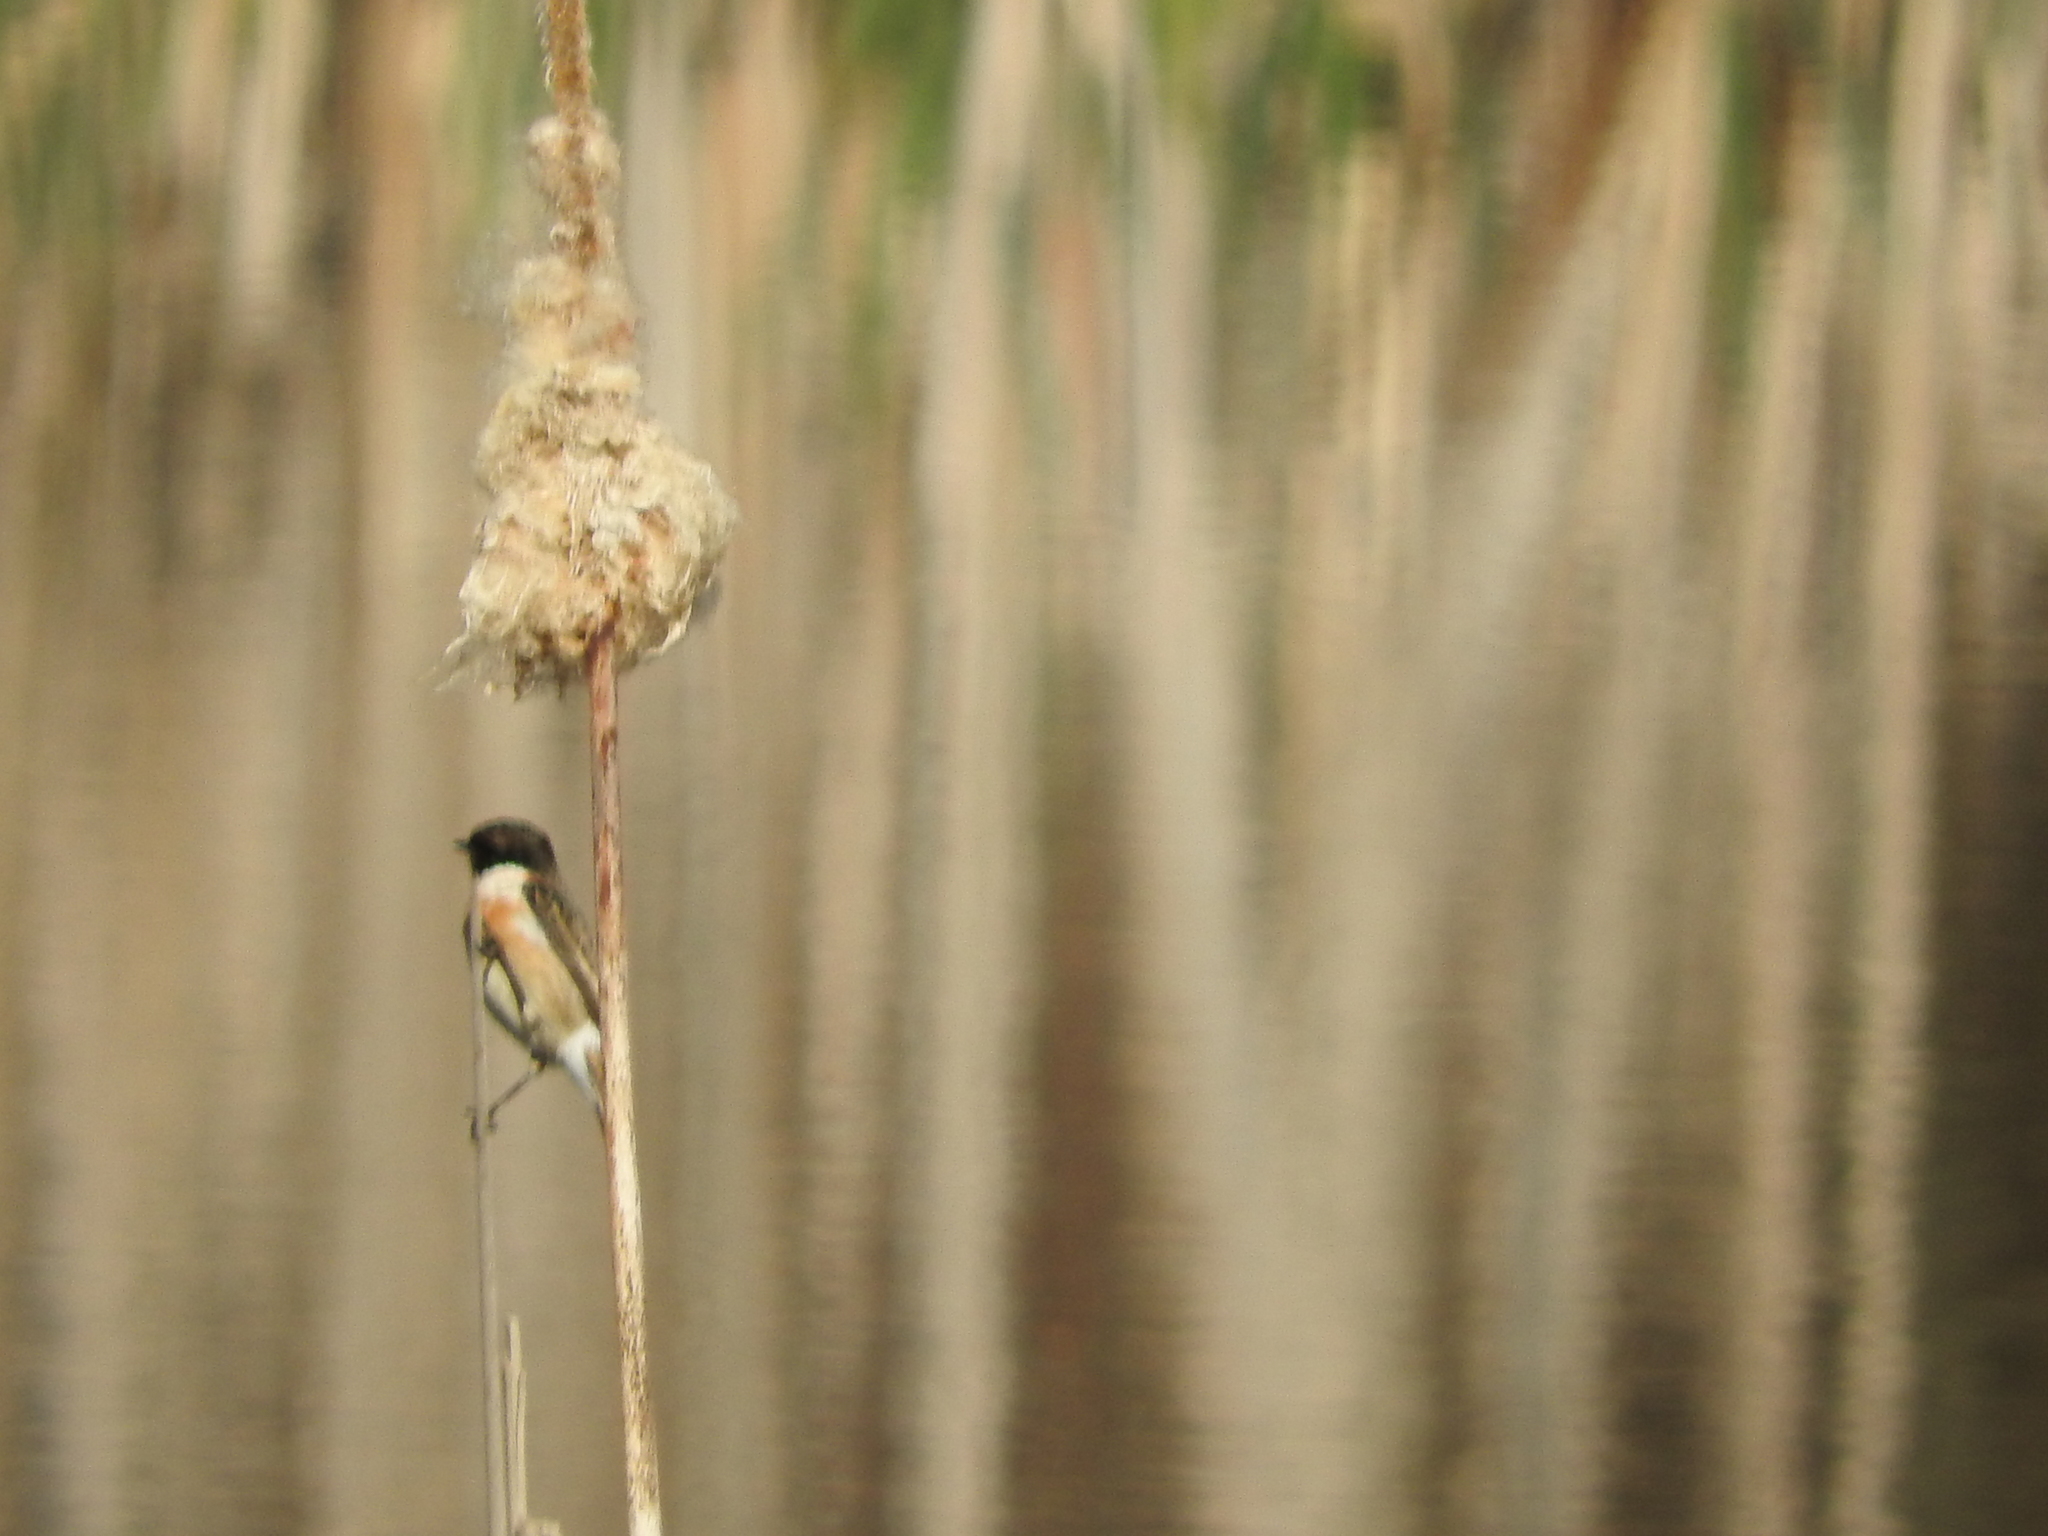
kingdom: Animalia
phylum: Chordata
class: Aves
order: Passeriformes
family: Muscicapidae
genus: Saxicola
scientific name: Saxicola rubicola
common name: European stonechat
